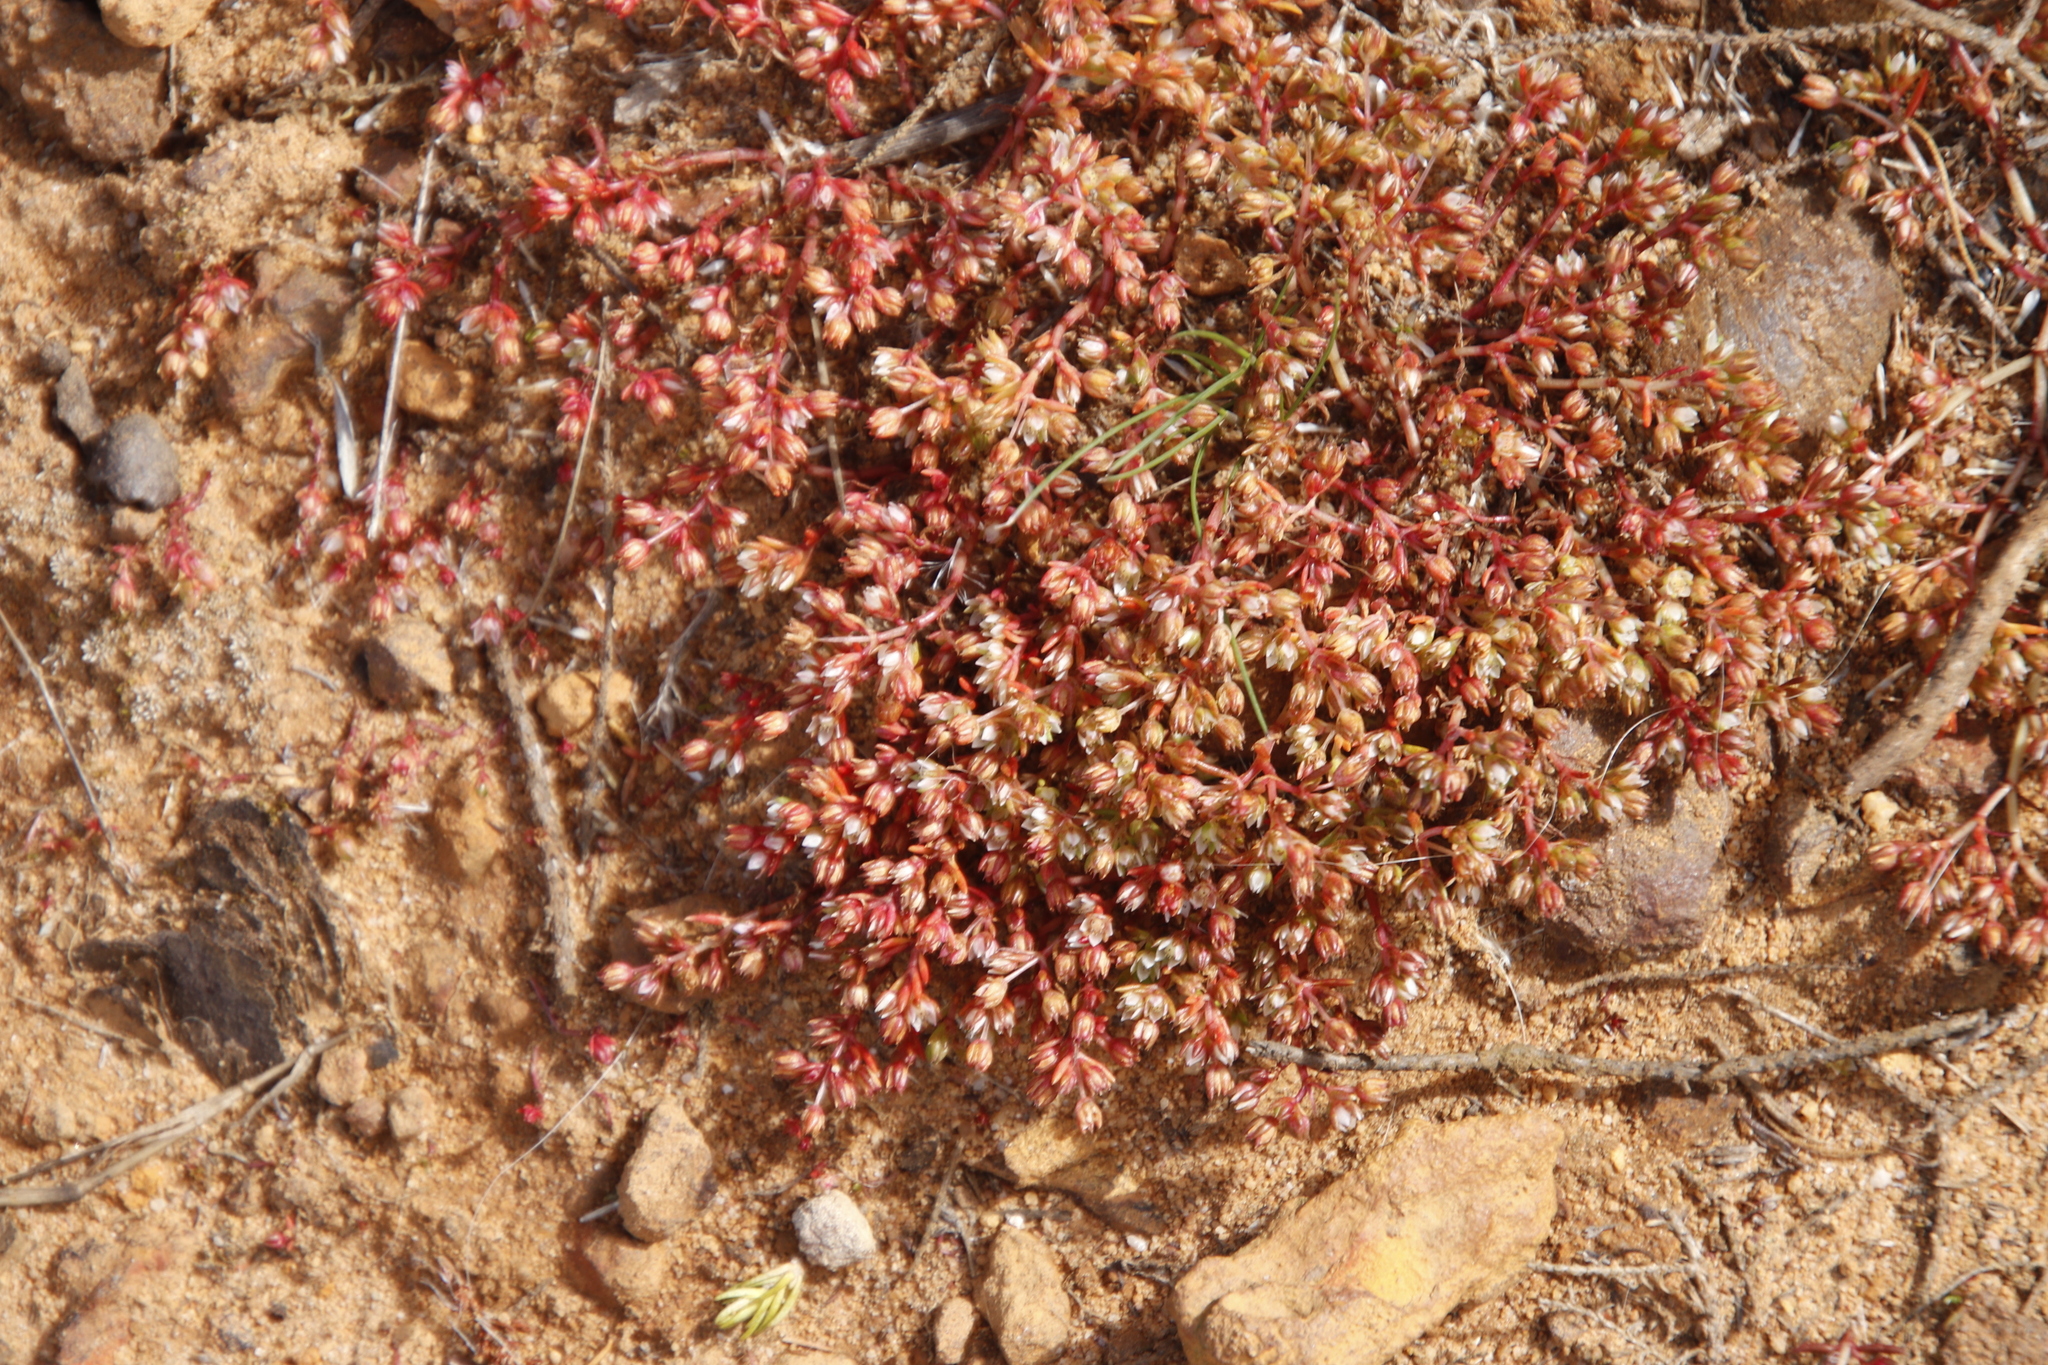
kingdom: Plantae
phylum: Tracheophyta
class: Magnoliopsida
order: Saxifragales
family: Crassulaceae
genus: Crassula
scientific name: Crassula decumbens
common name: Scilly pigmyweed
